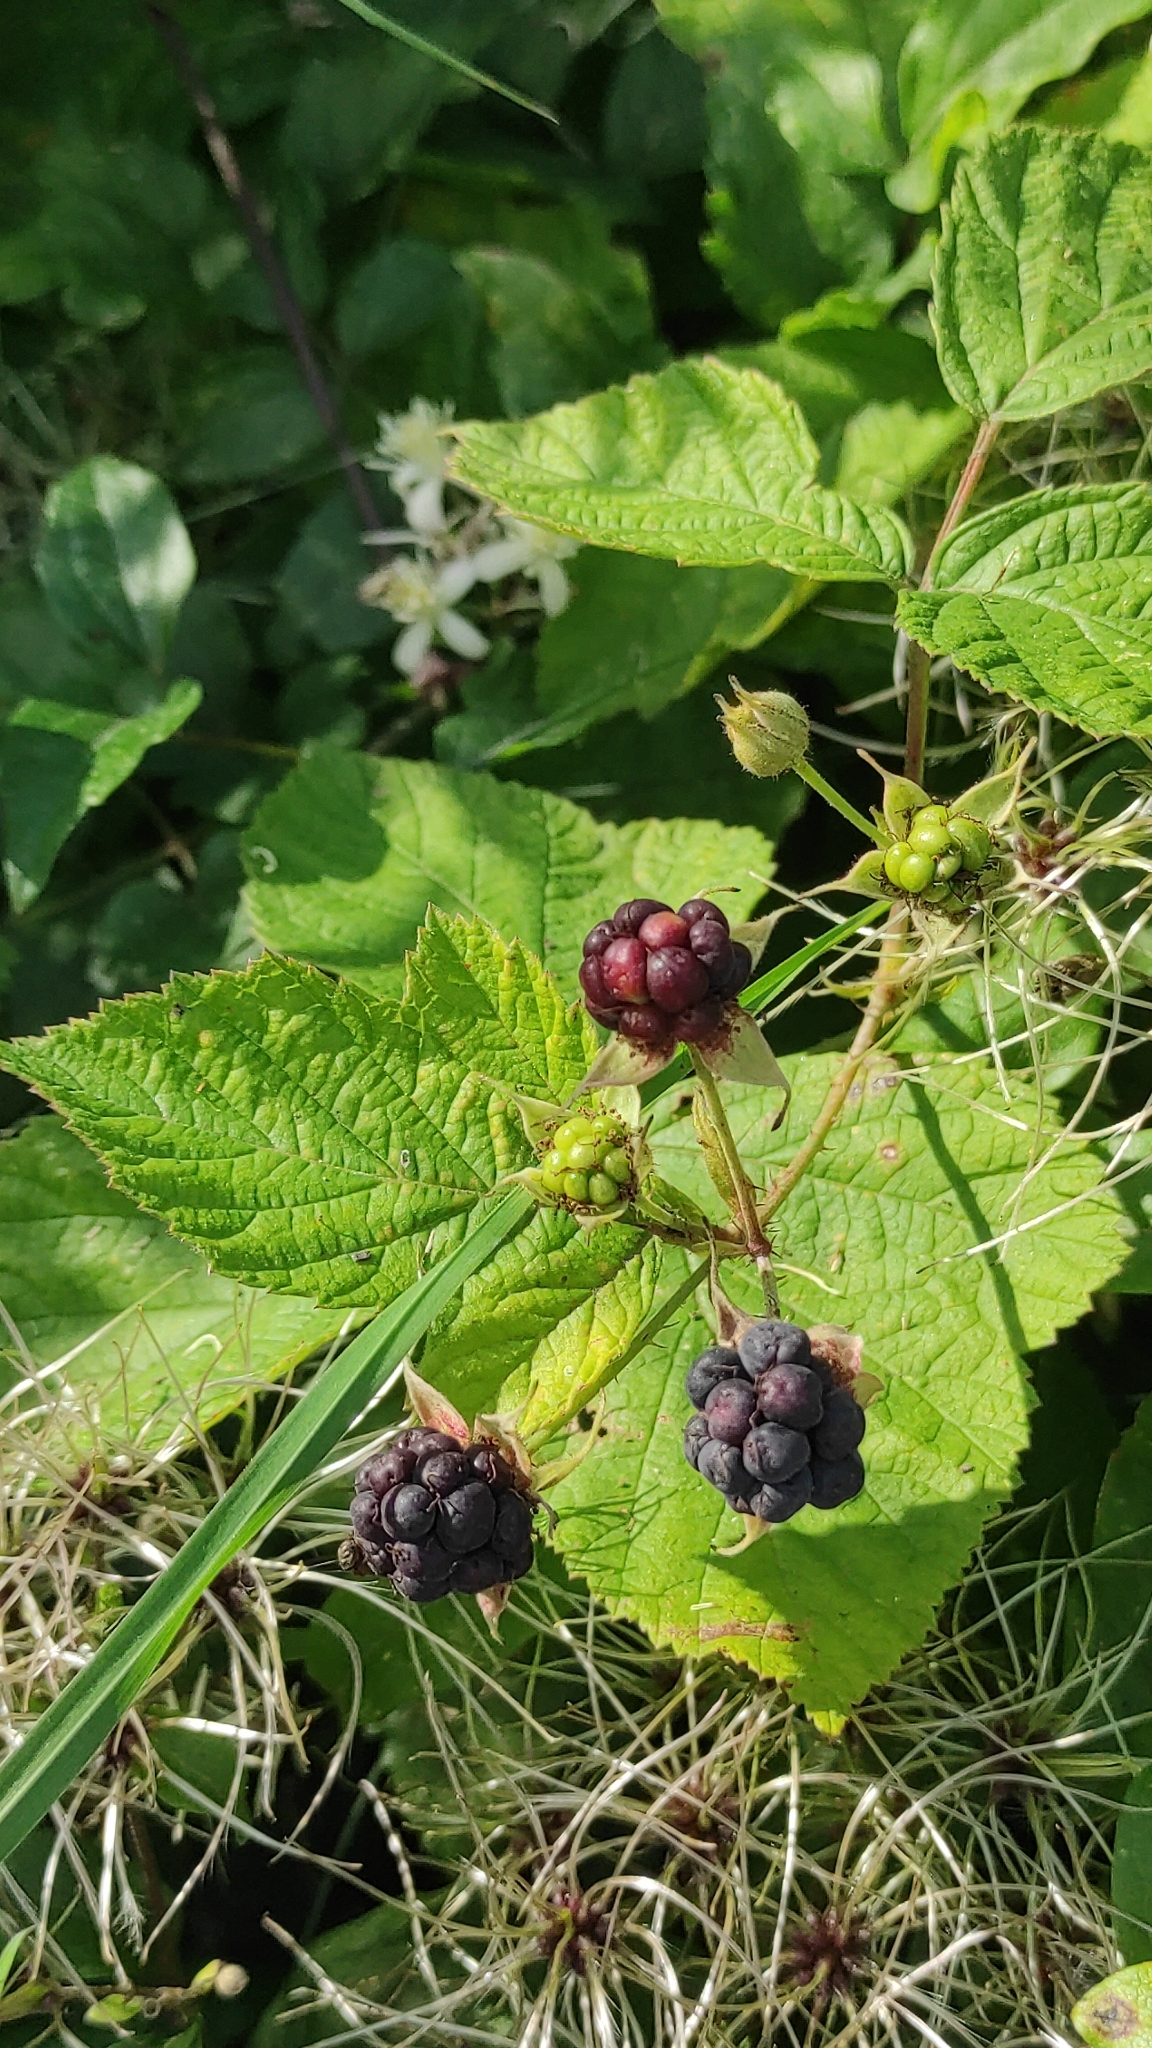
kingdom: Plantae
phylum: Tracheophyta
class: Magnoliopsida
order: Rosales
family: Rosaceae
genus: Rubus
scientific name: Rubus caesius
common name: Dewberry
